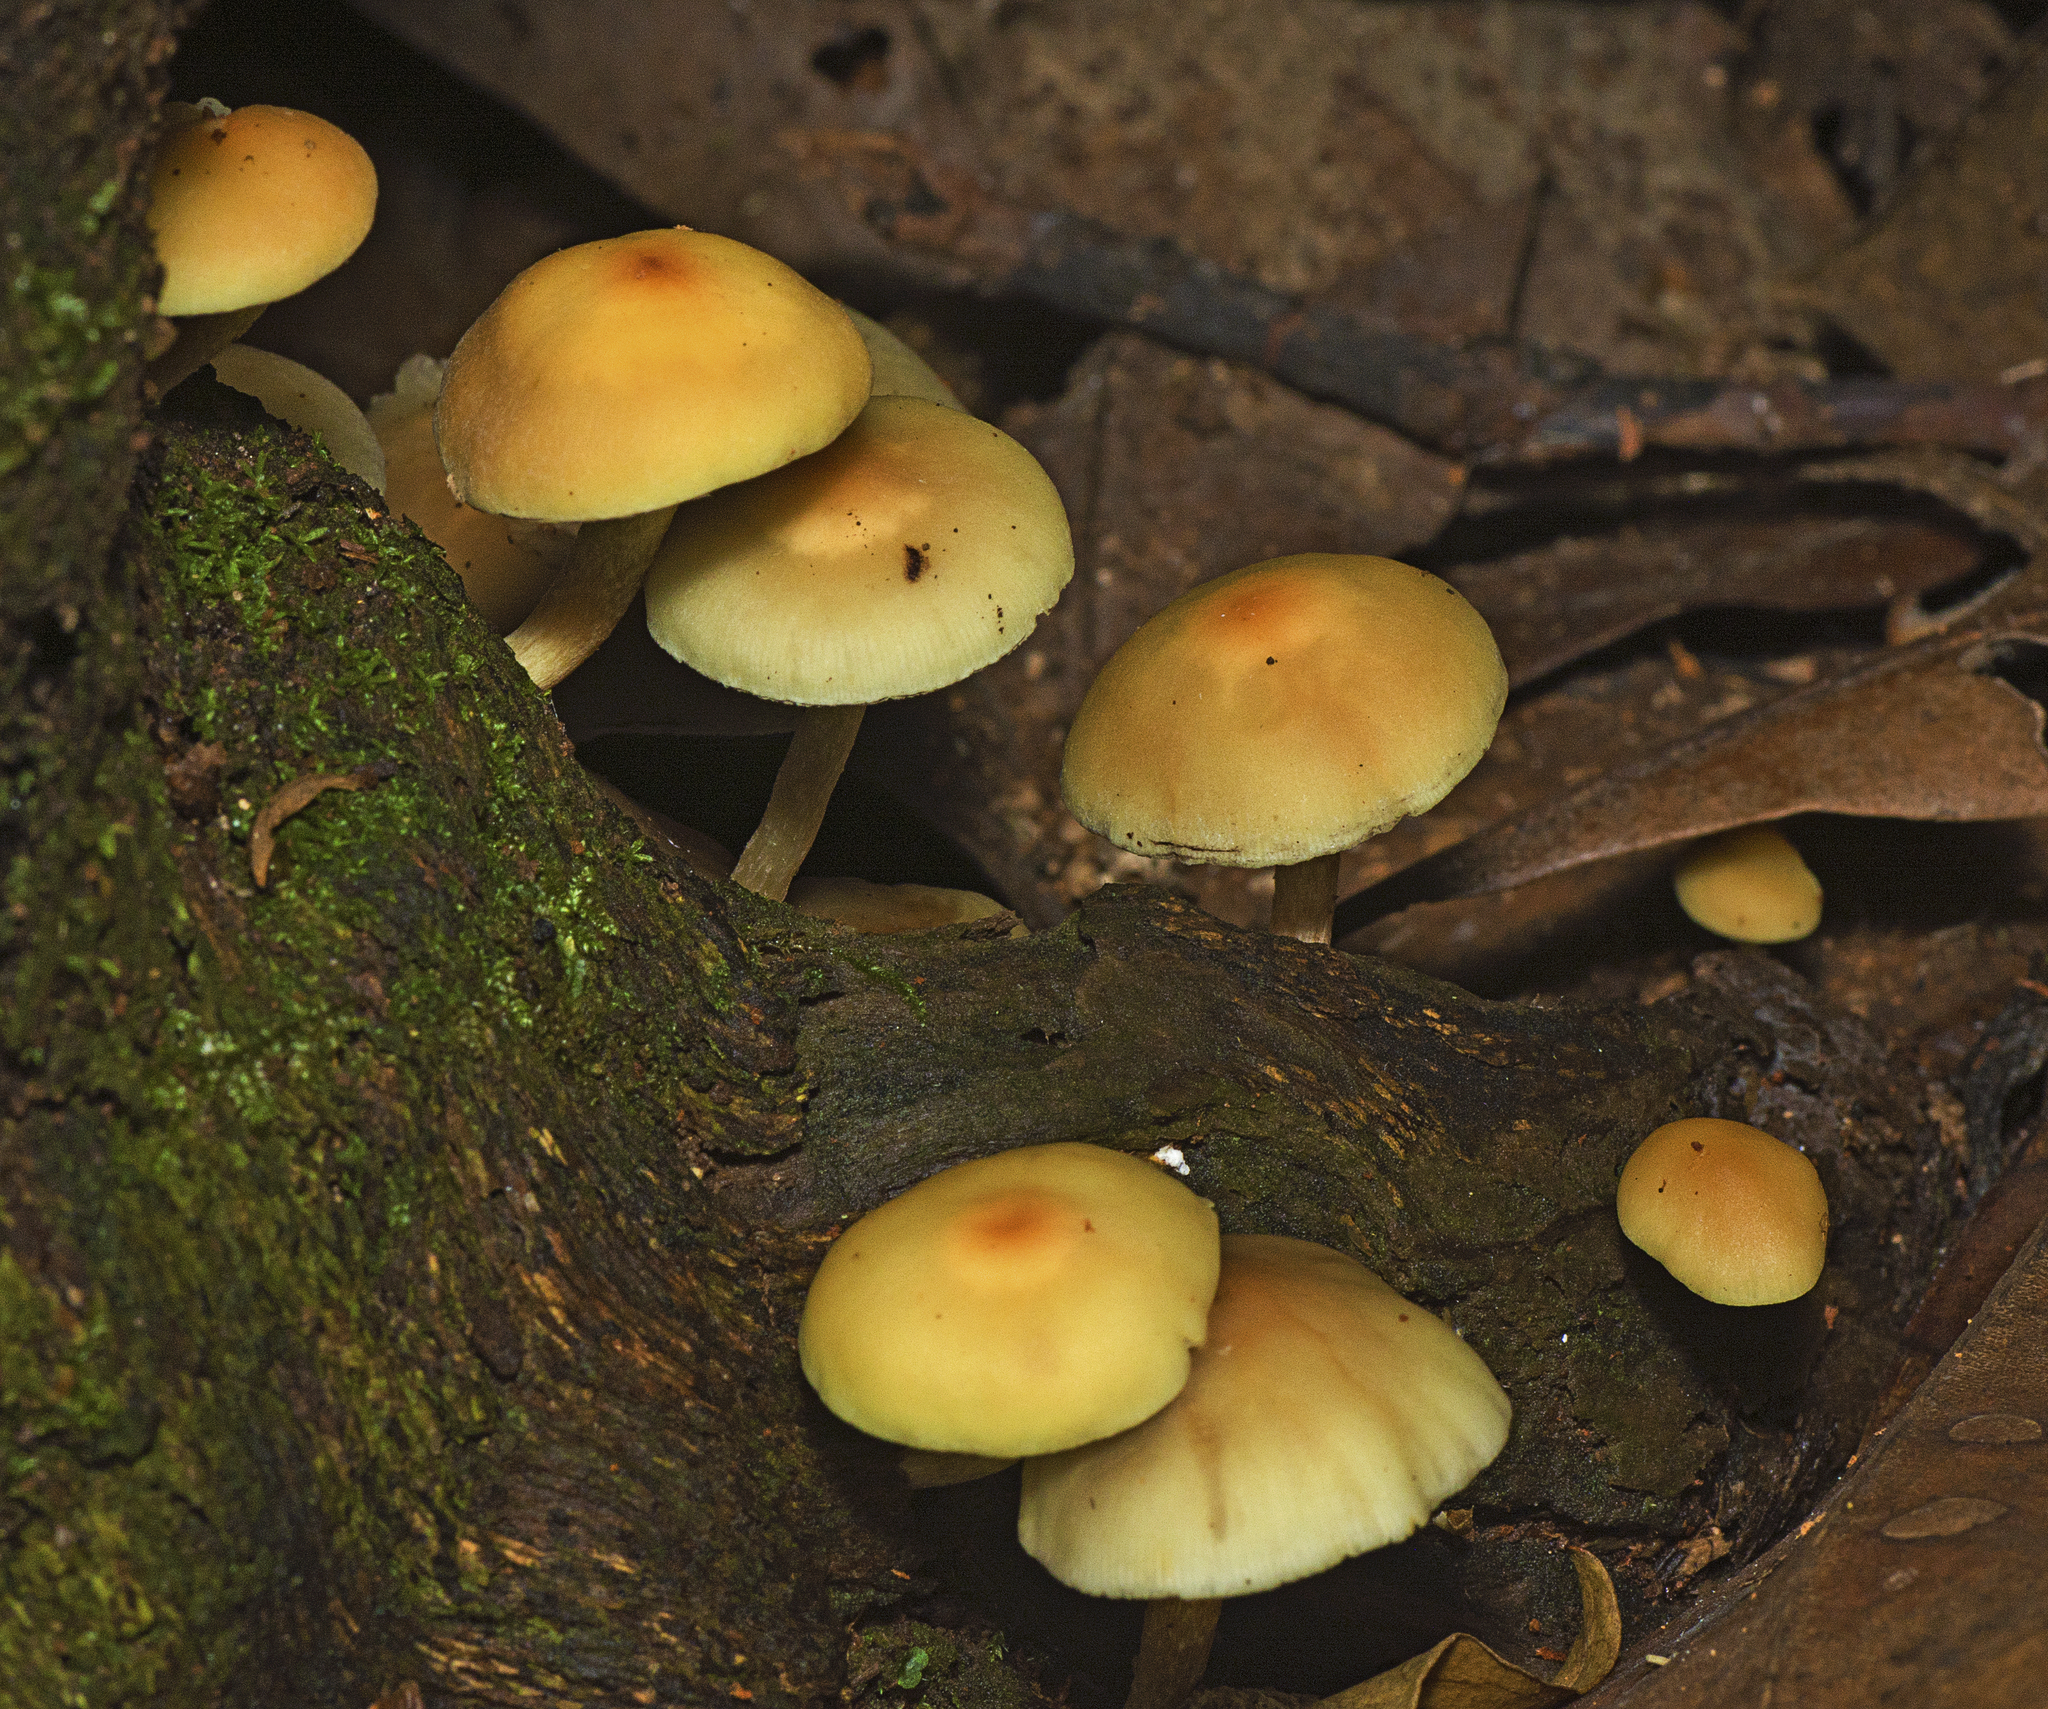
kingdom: Fungi
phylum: Basidiomycota
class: Agaricomycetes
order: Agaricales
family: Strophariaceae
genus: Hypholoma
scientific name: Hypholoma fasciculare
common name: Sulphur tuft
